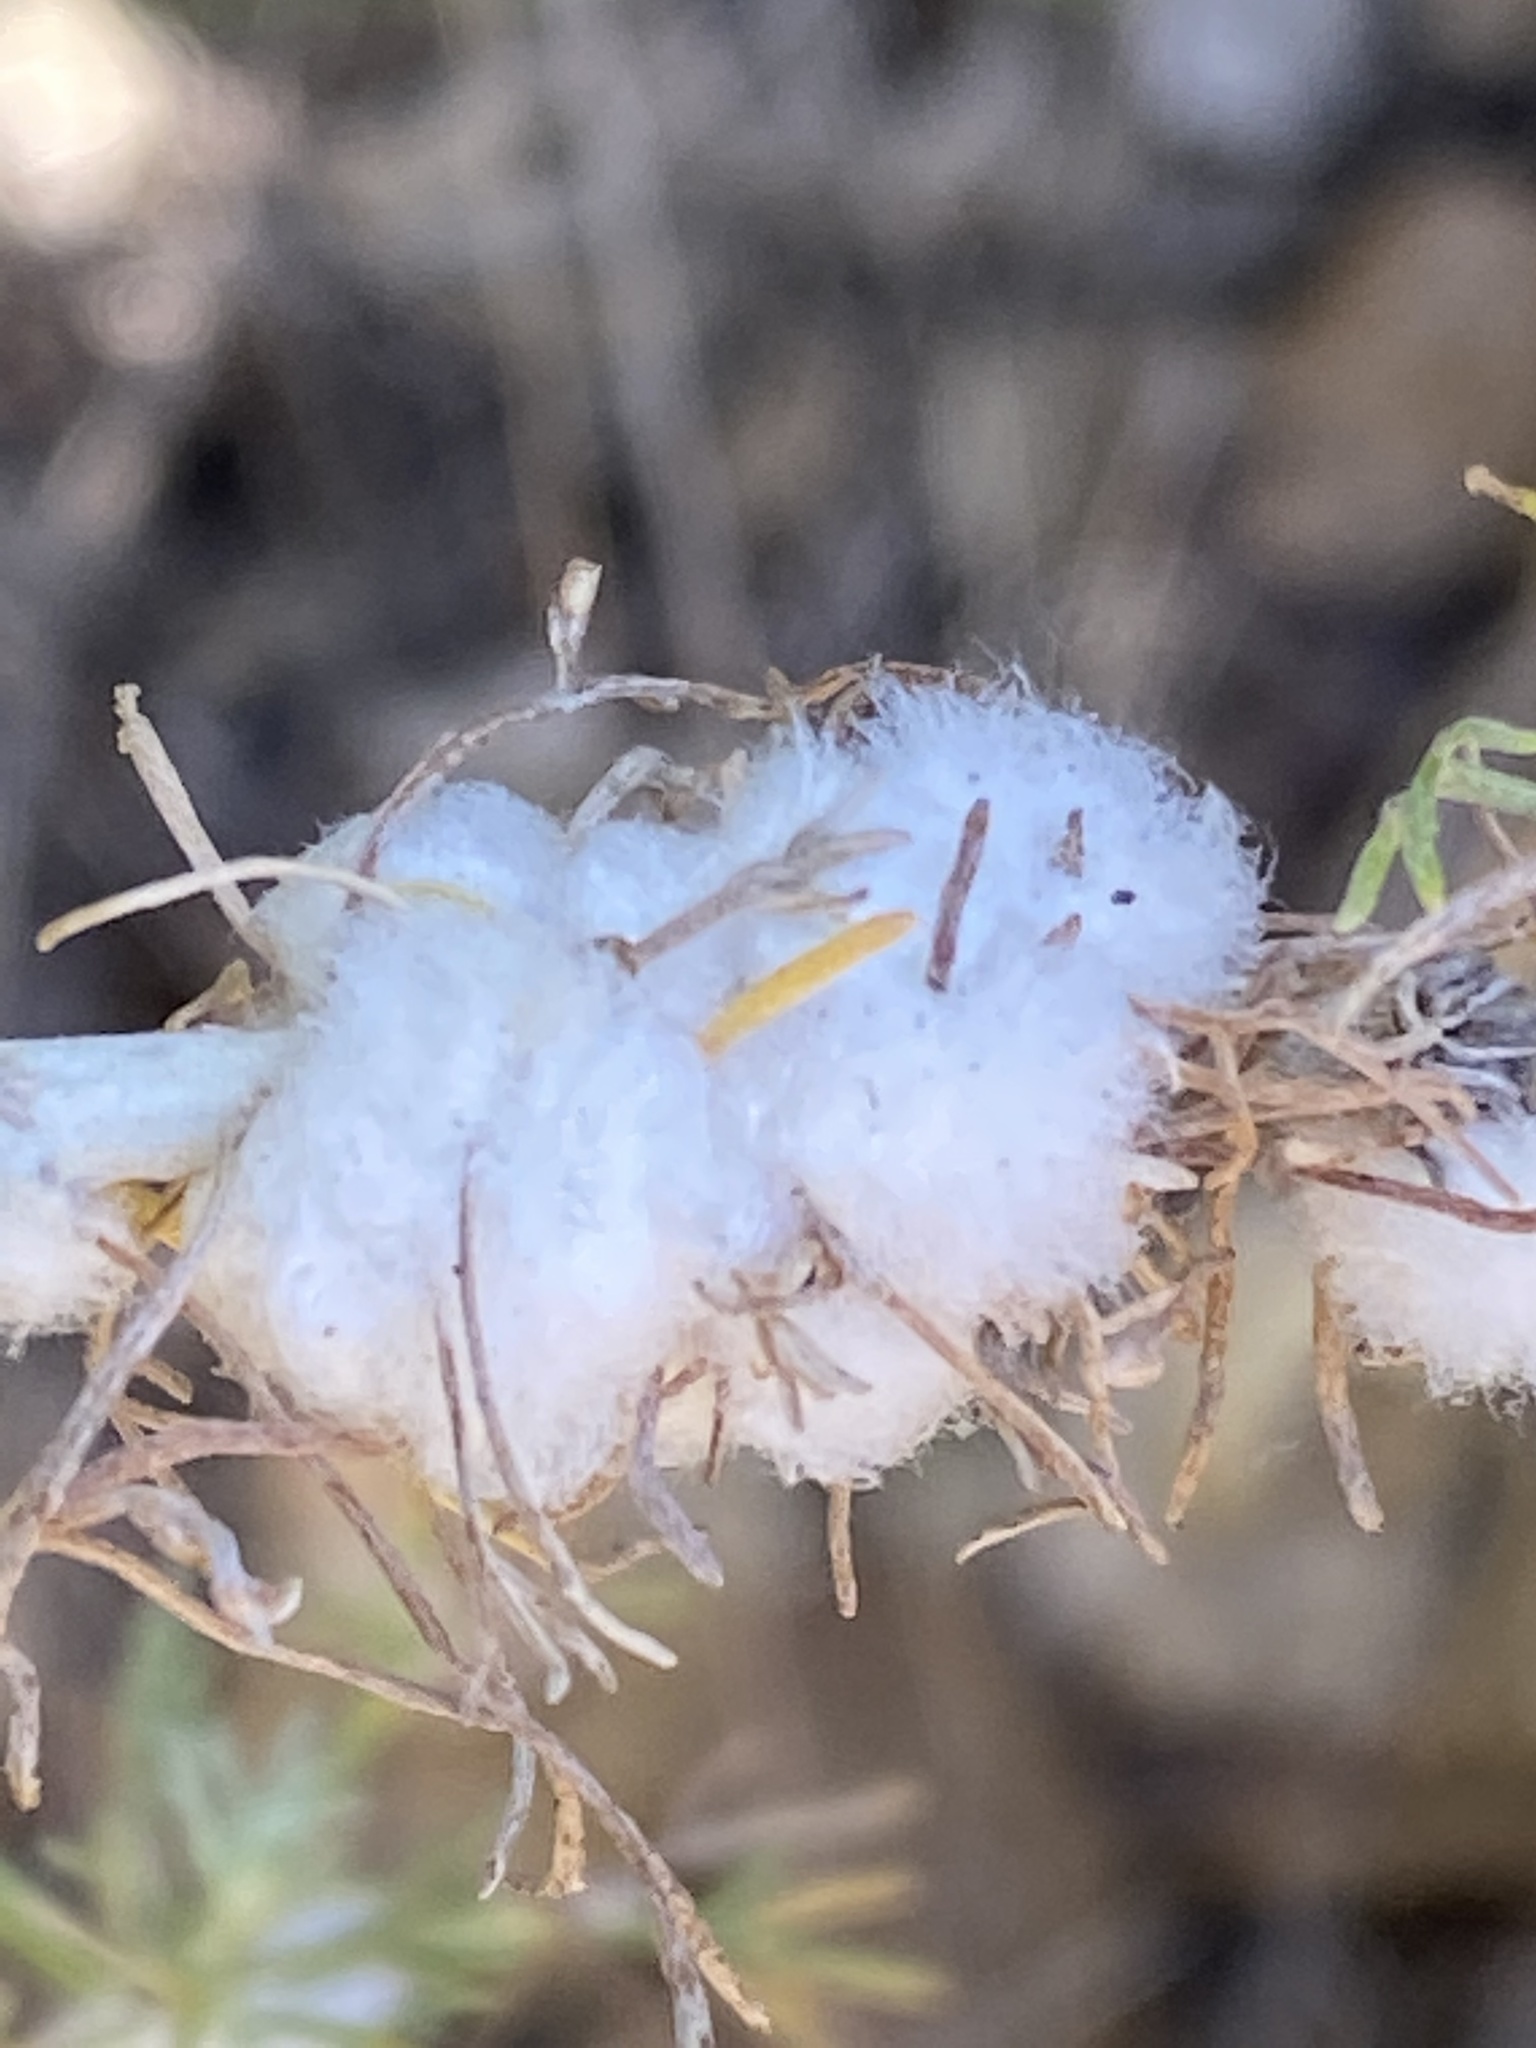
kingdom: Animalia
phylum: Arthropoda
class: Insecta
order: Diptera
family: Cecidomyiidae
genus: Rhopalomyia
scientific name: Rhopalomyia floccosa
